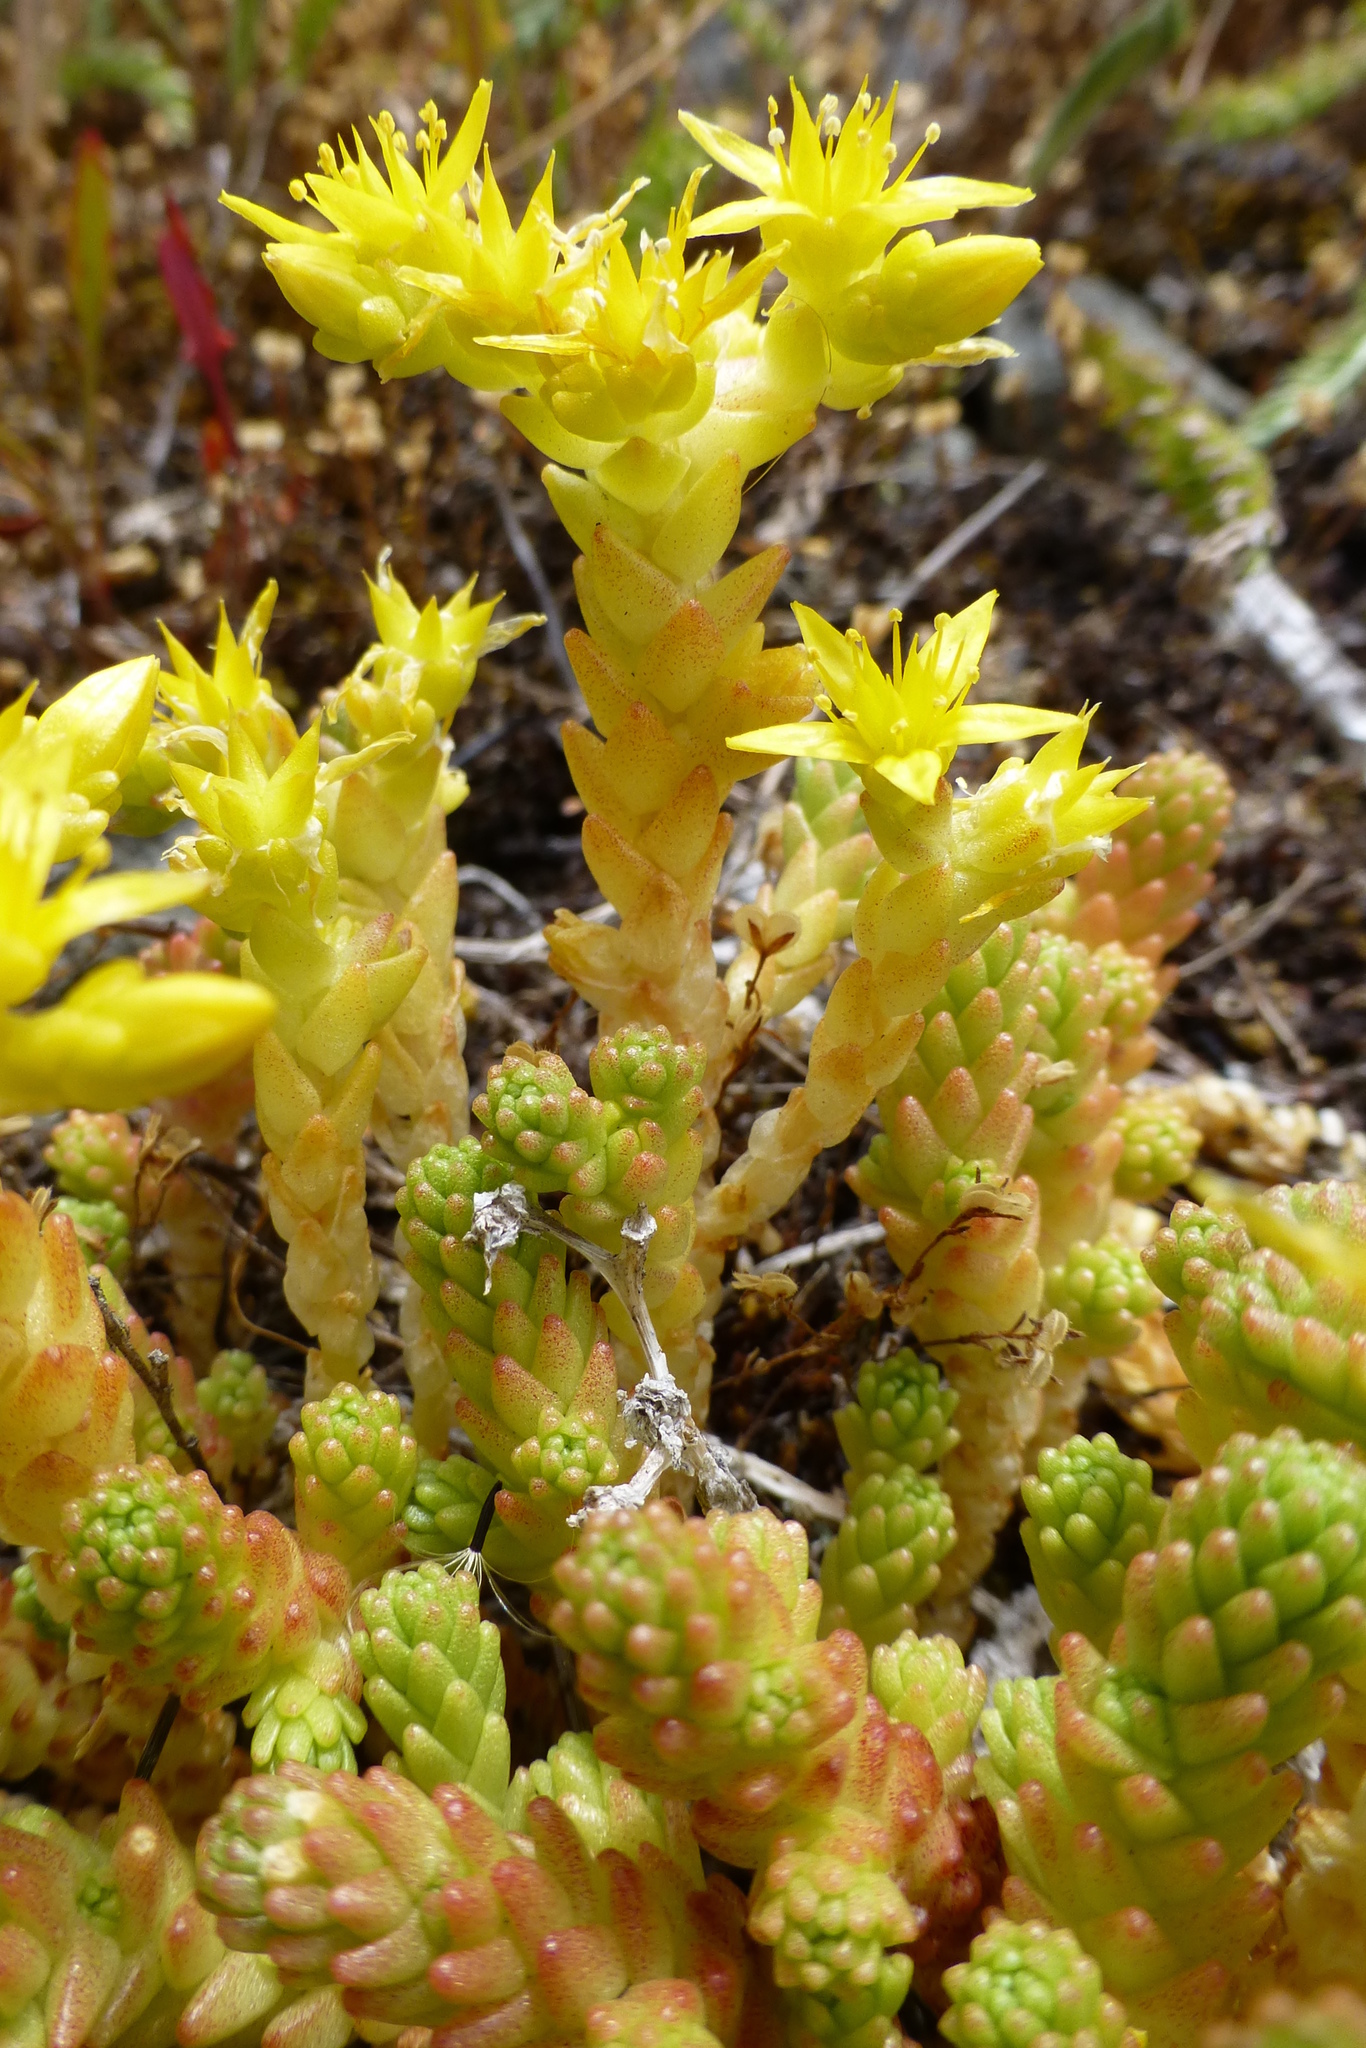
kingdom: Plantae
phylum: Tracheophyta
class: Magnoliopsida
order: Saxifragales
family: Crassulaceae
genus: Sedum
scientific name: Sedum acre
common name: Biting stonecrop
